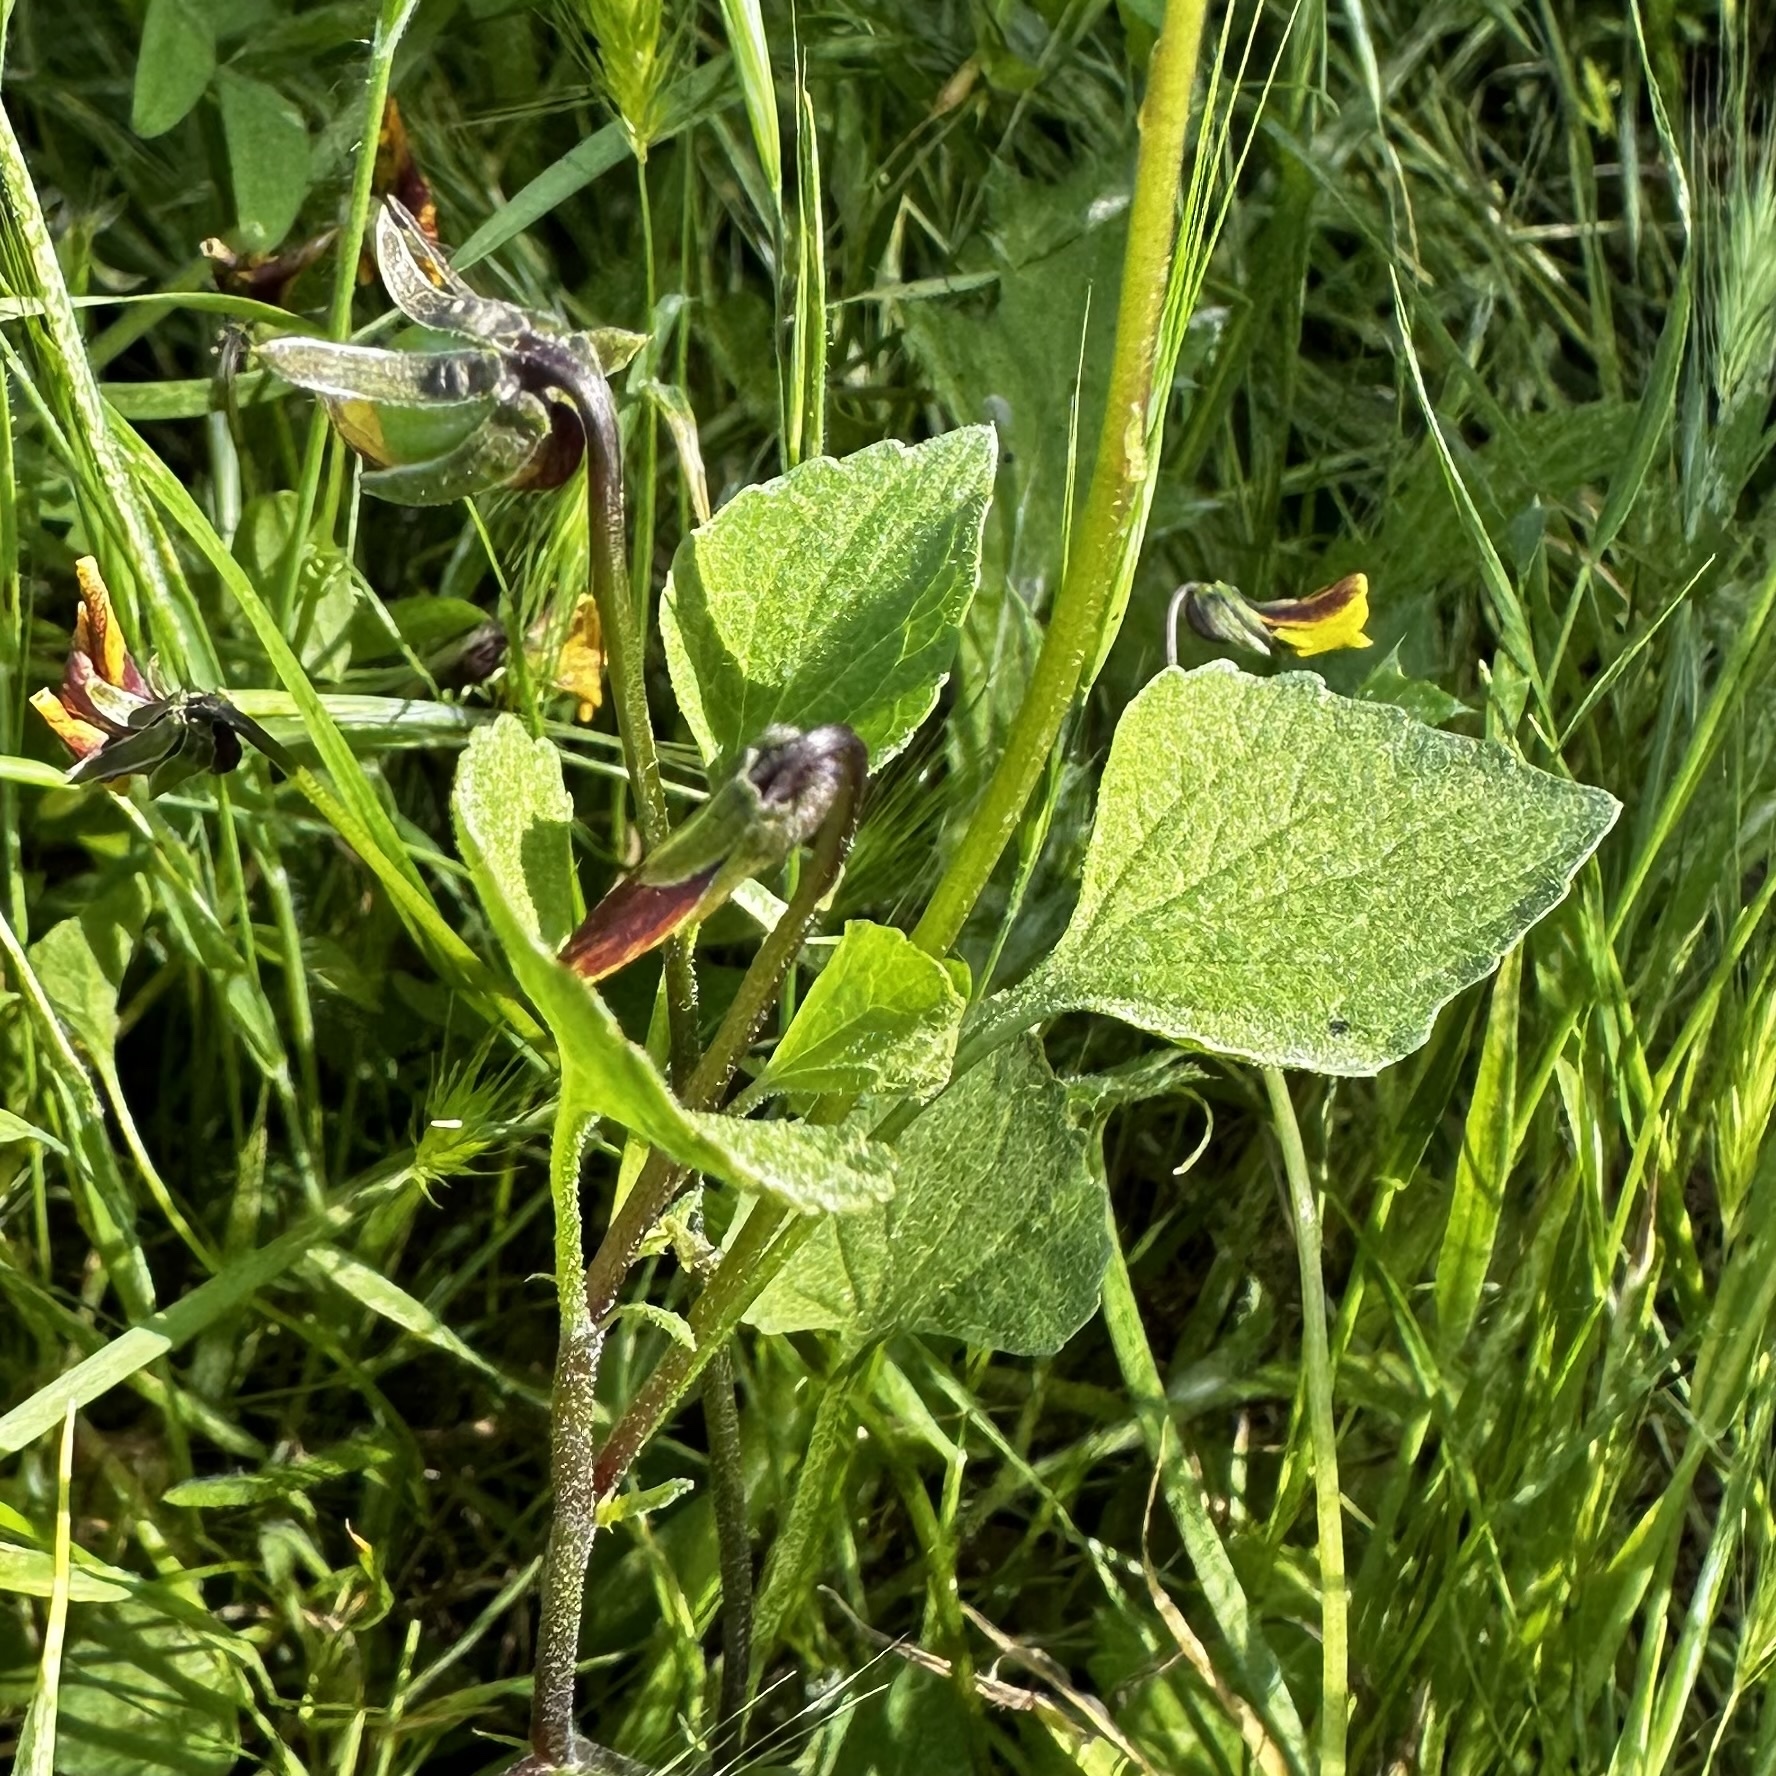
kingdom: Plantae
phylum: Tracheophyta
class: Magnoliopsida
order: Malpighiales
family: Violaceae
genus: Viola
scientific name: Viola pedunculata
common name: California golden violet
